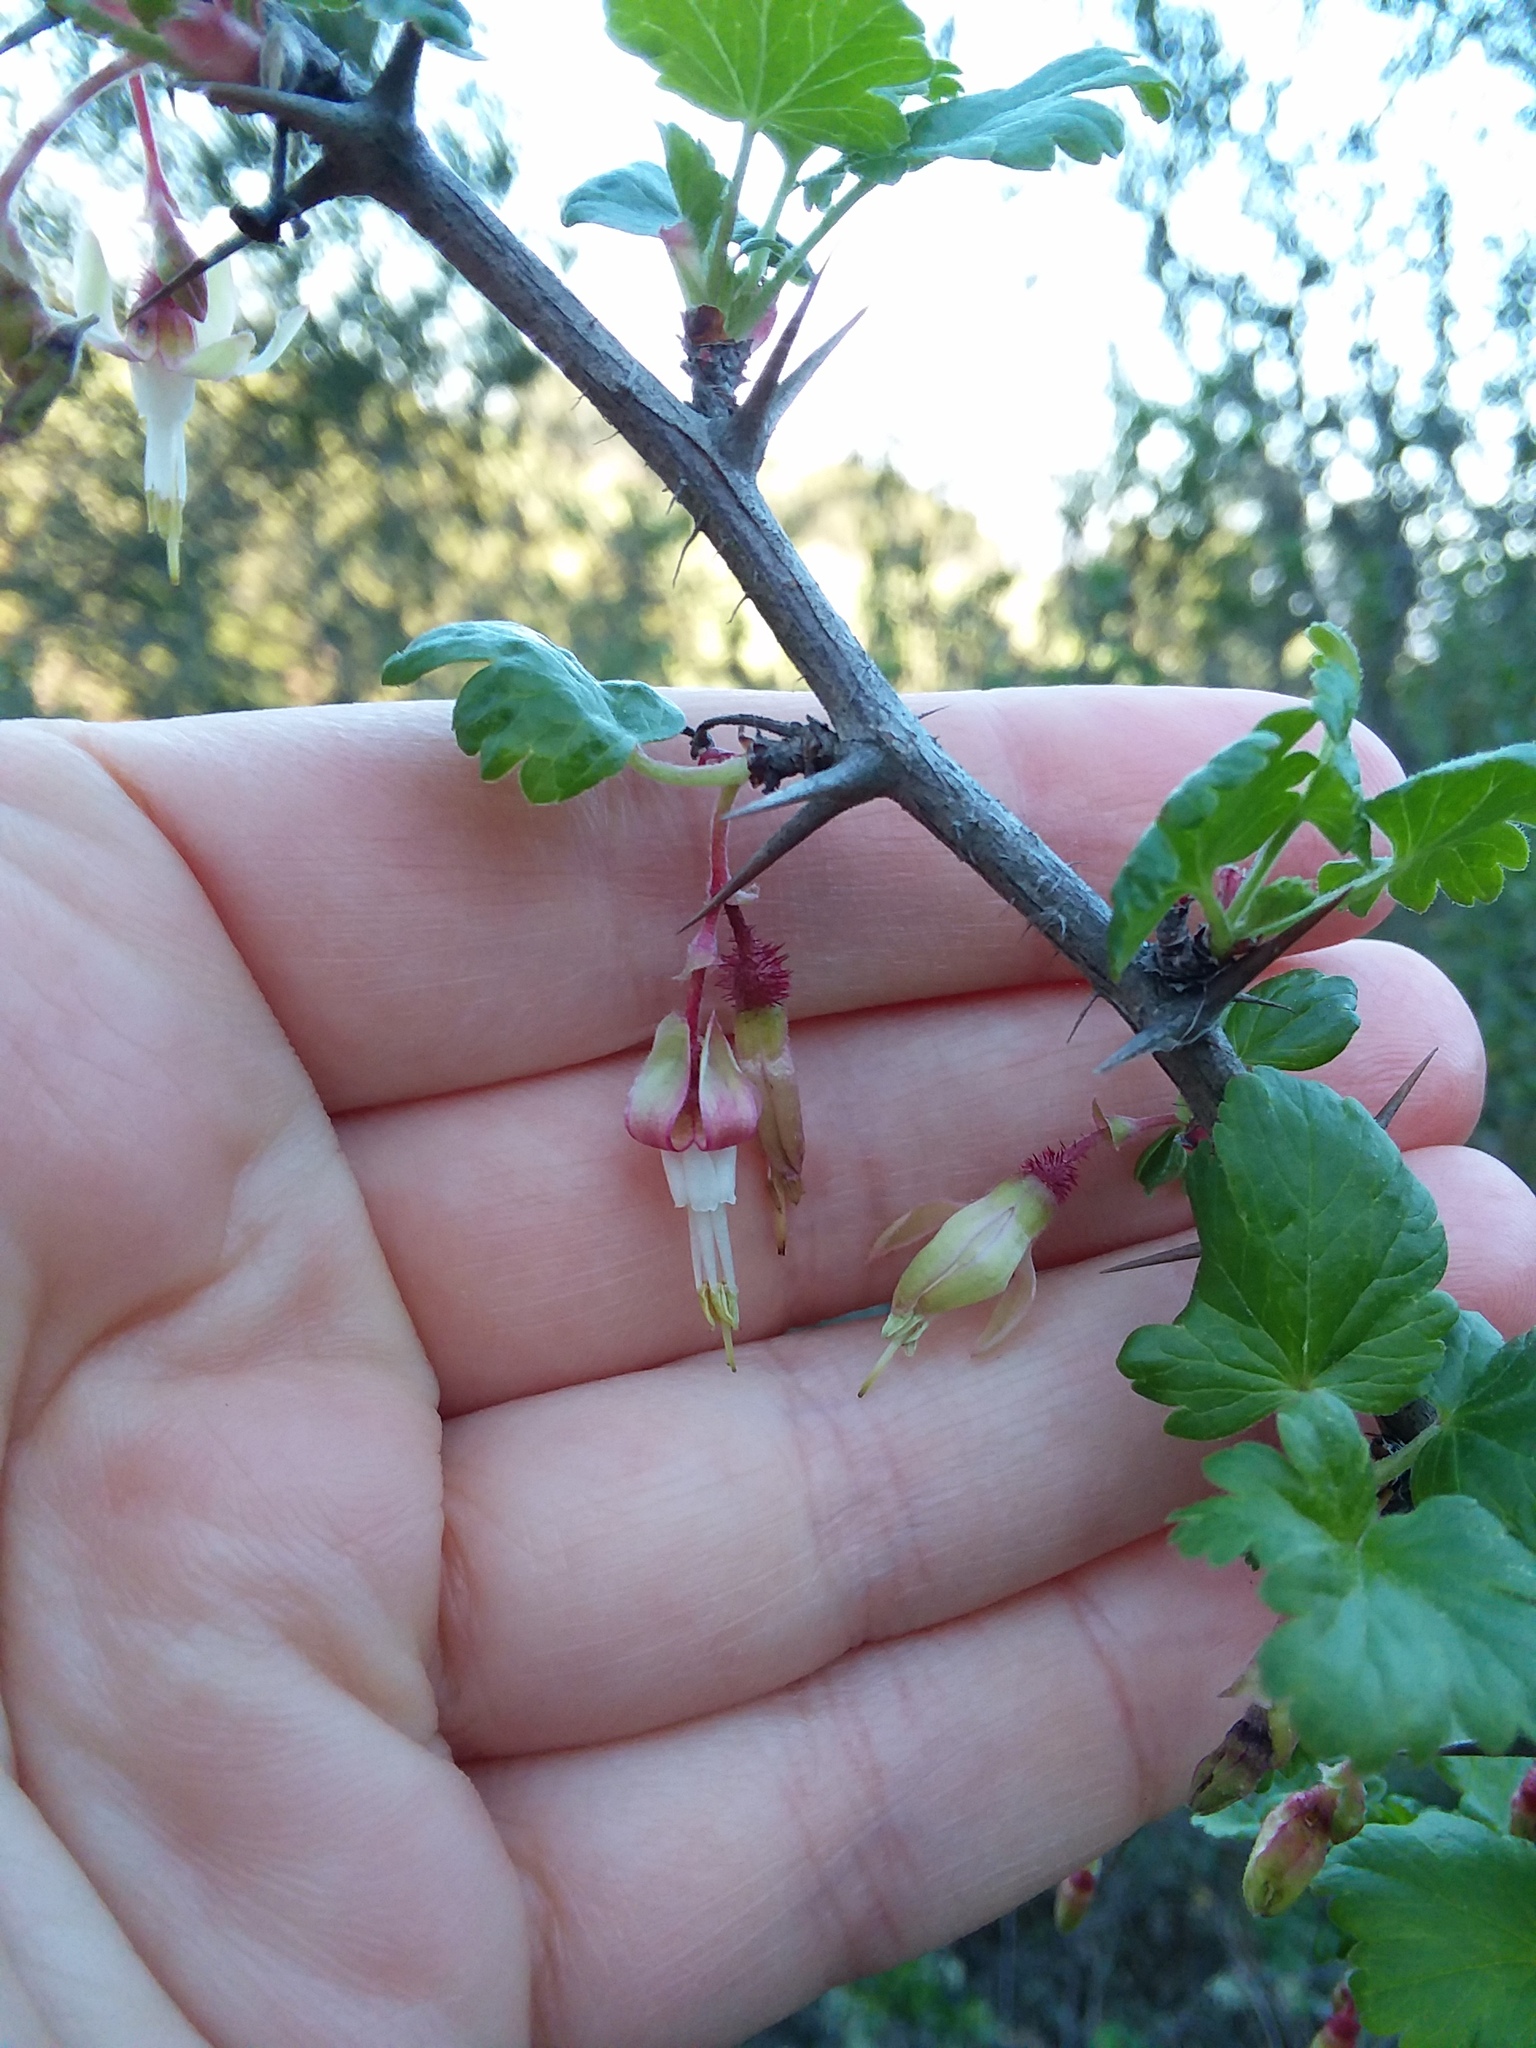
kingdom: Plantae
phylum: Tracheophyta
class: Magnoliopsida
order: Saxifragales
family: Grossulariaceae
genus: Ribes
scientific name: Ribes californicum
